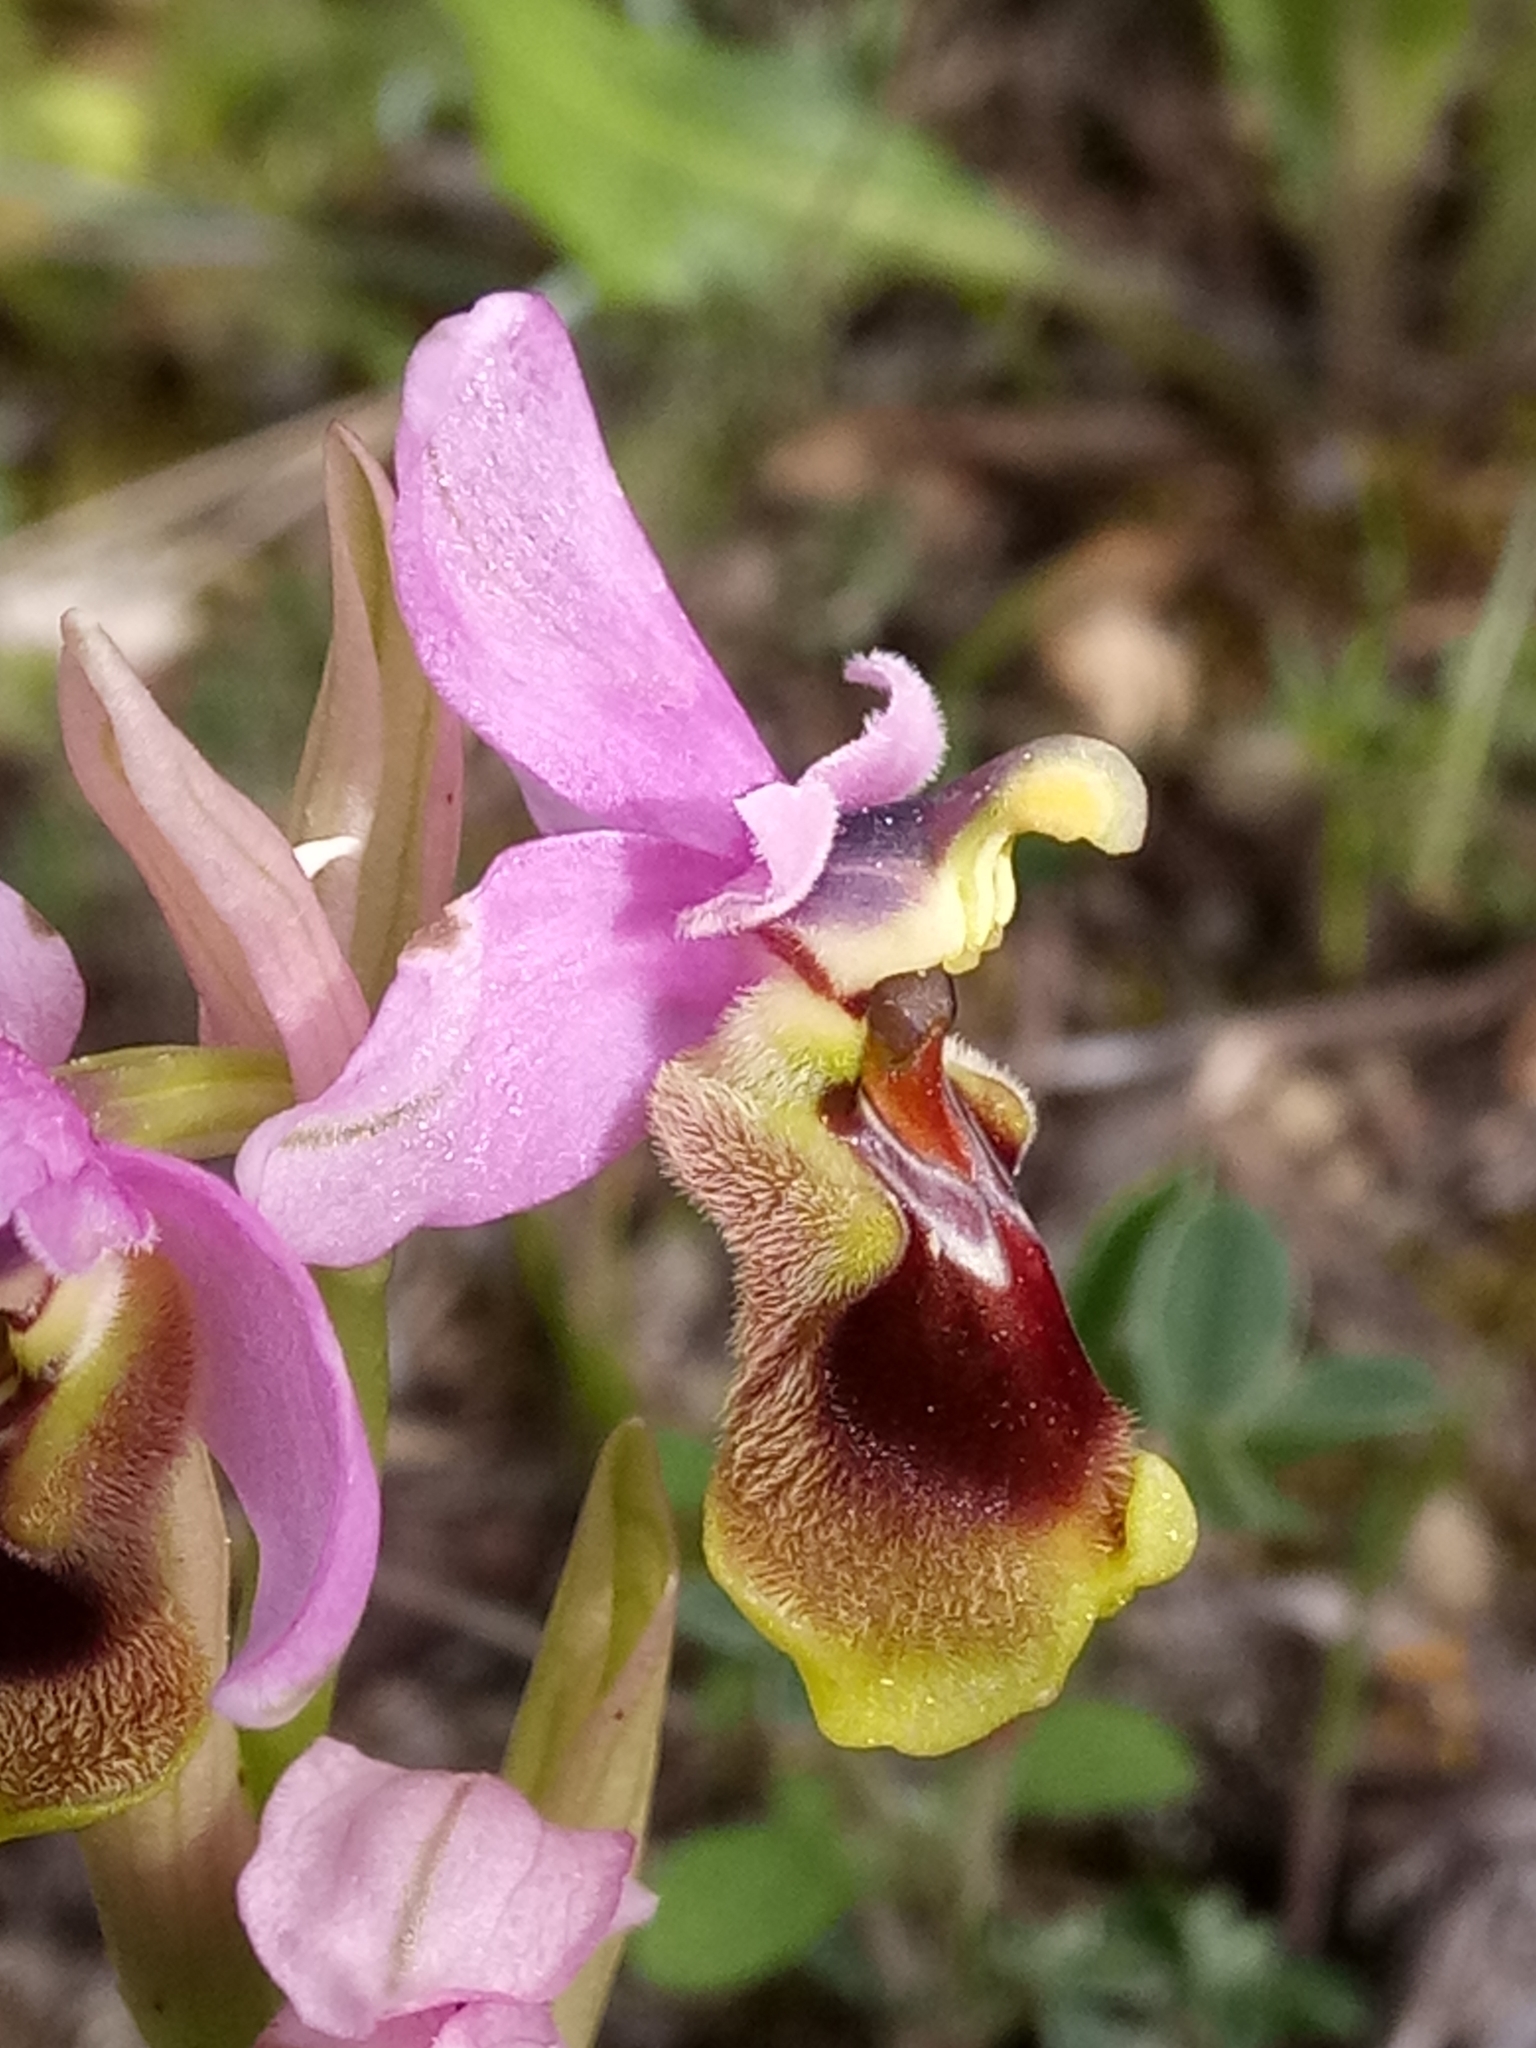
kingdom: Plantae
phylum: Tracheophyta
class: Liliopsida
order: Asparagales
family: Orchidaceae
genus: Ophrys
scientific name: Ophrys tenthredinifera
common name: Sawfly orchid
